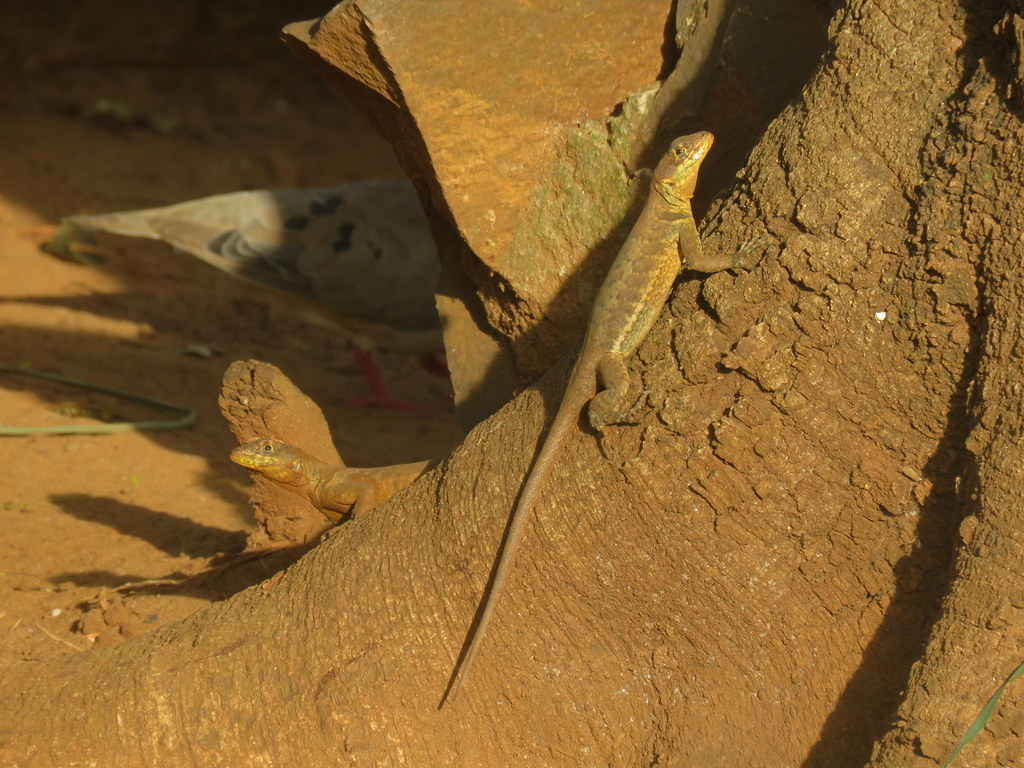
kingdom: Animalia
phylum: Chordata
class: Squamata
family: Tropiduridae
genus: Tropidurus
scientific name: Tropidurus catalanensis
